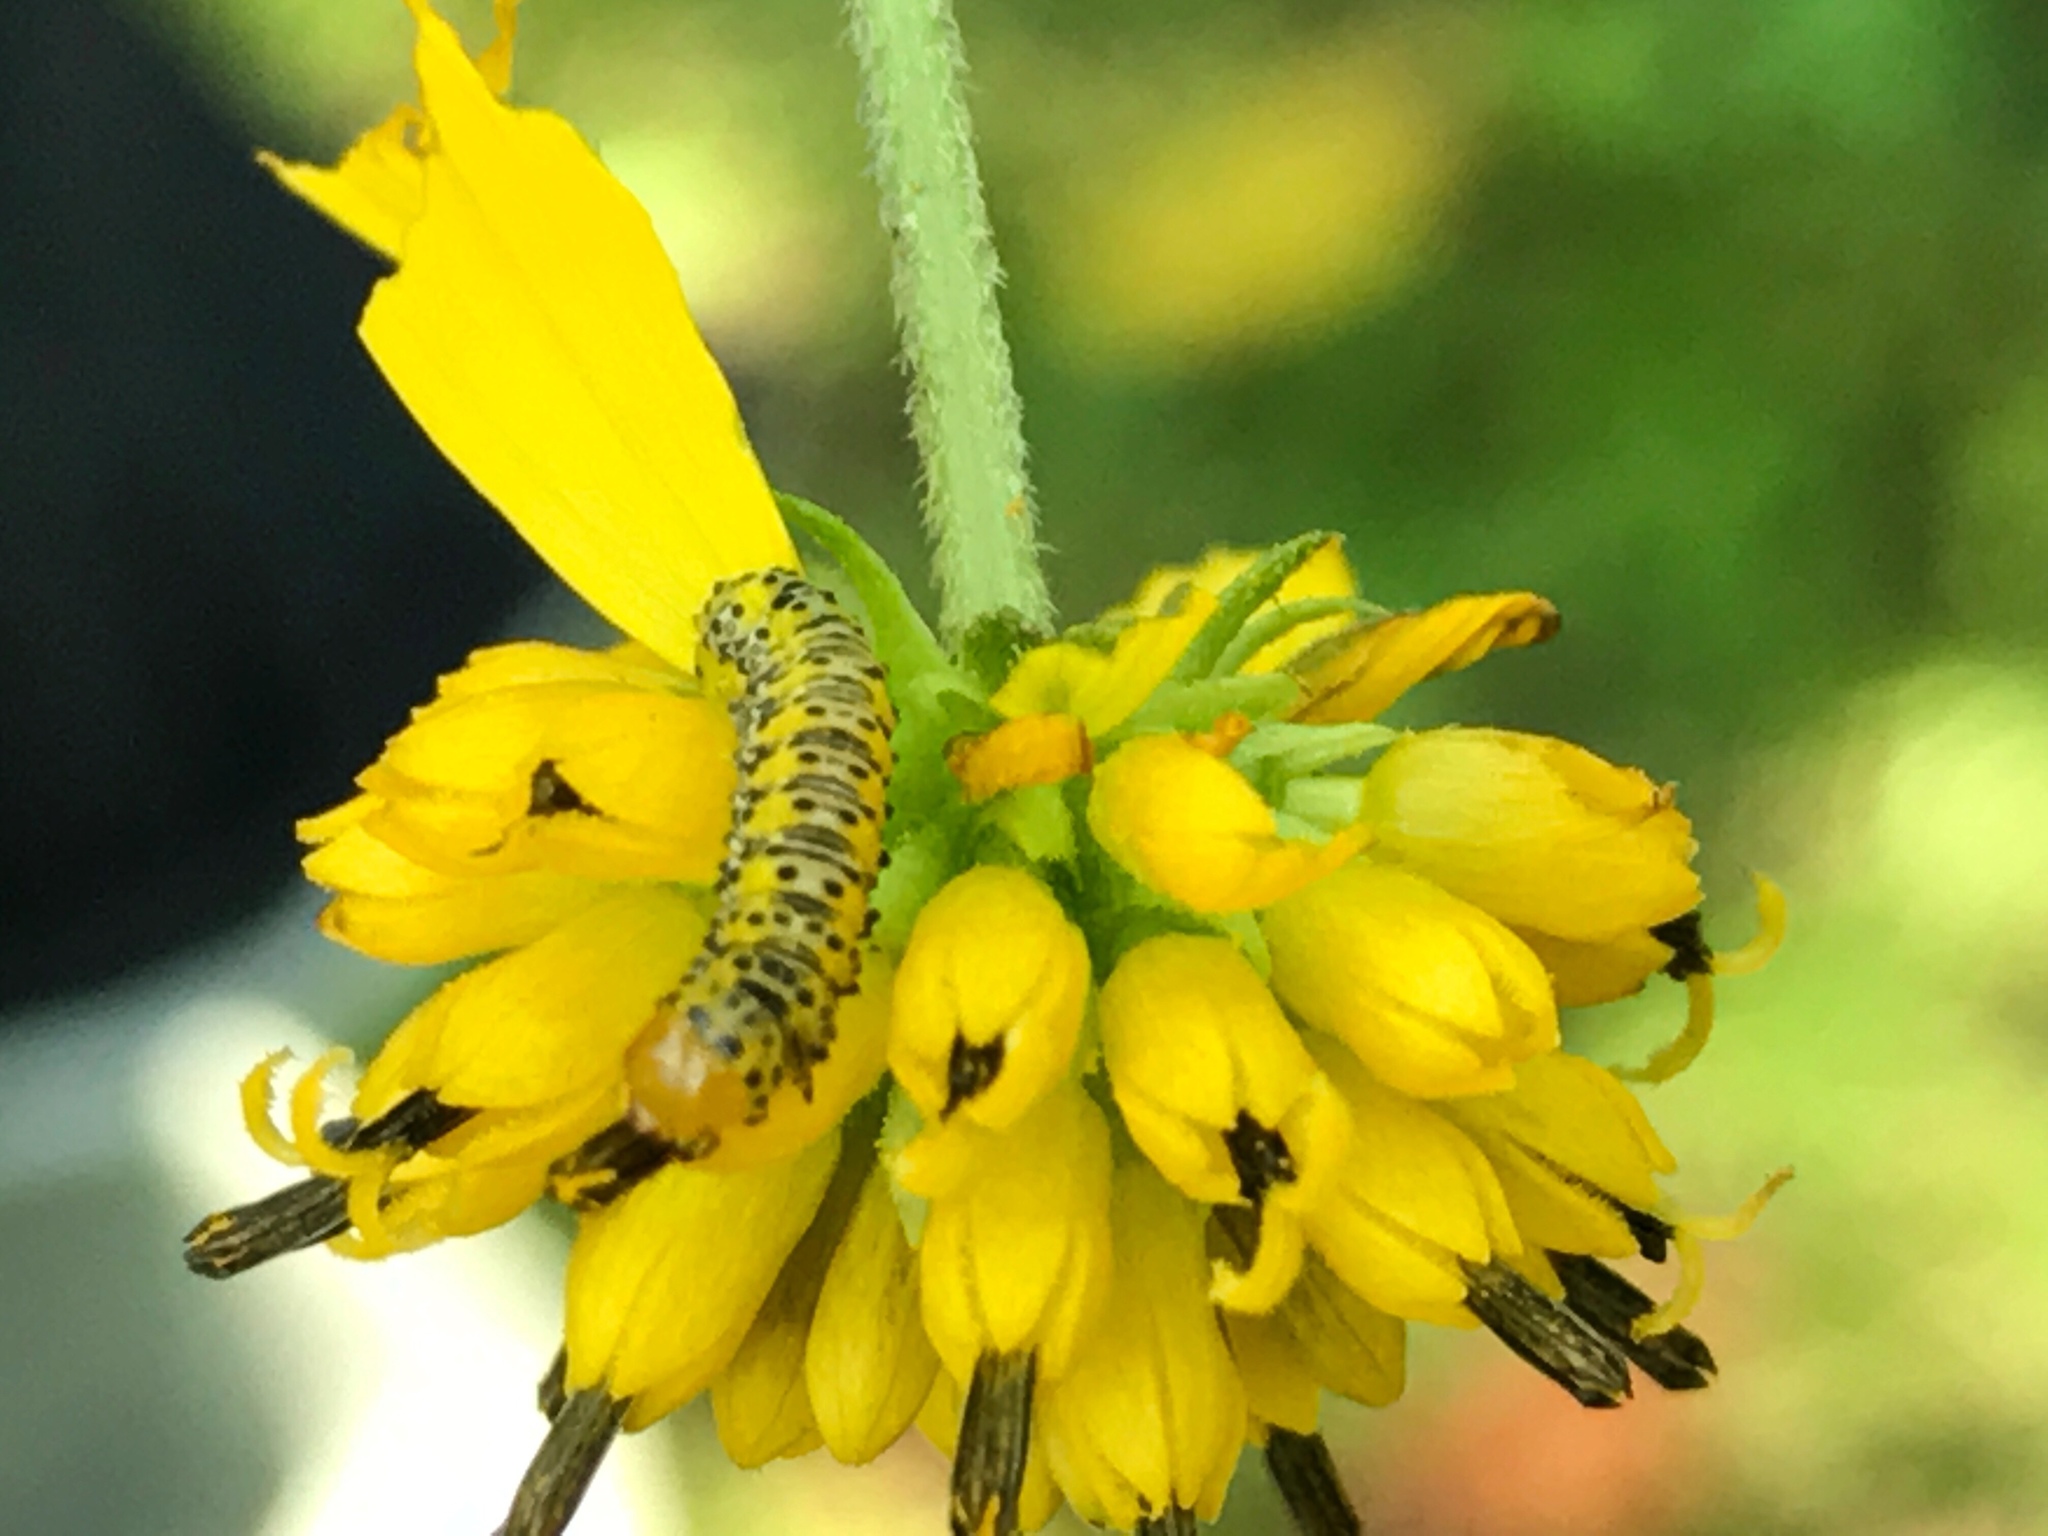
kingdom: Animalia
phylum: Arthropoda
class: Insecta
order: Lepidoptera
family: Noctuidae
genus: Basilodes
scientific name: Basilodes pepita
